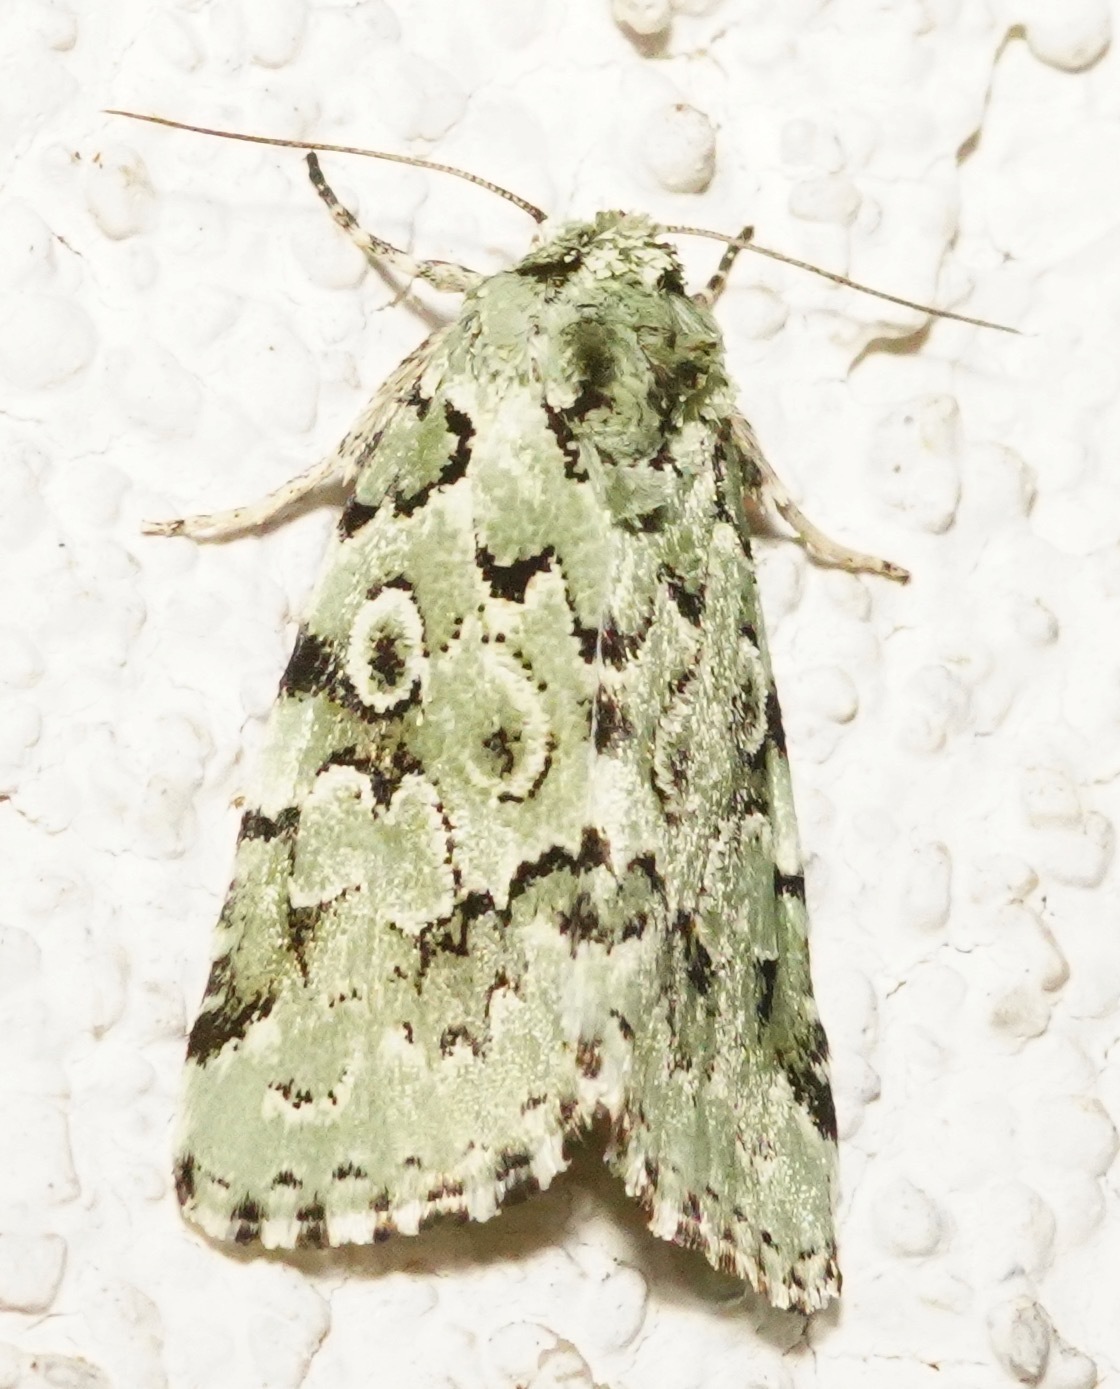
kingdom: Animalia
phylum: Arthropoda
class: Insecta
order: Lepidoptera
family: Noctuidae
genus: Bryolymnia
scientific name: Bryolymnia viridata
